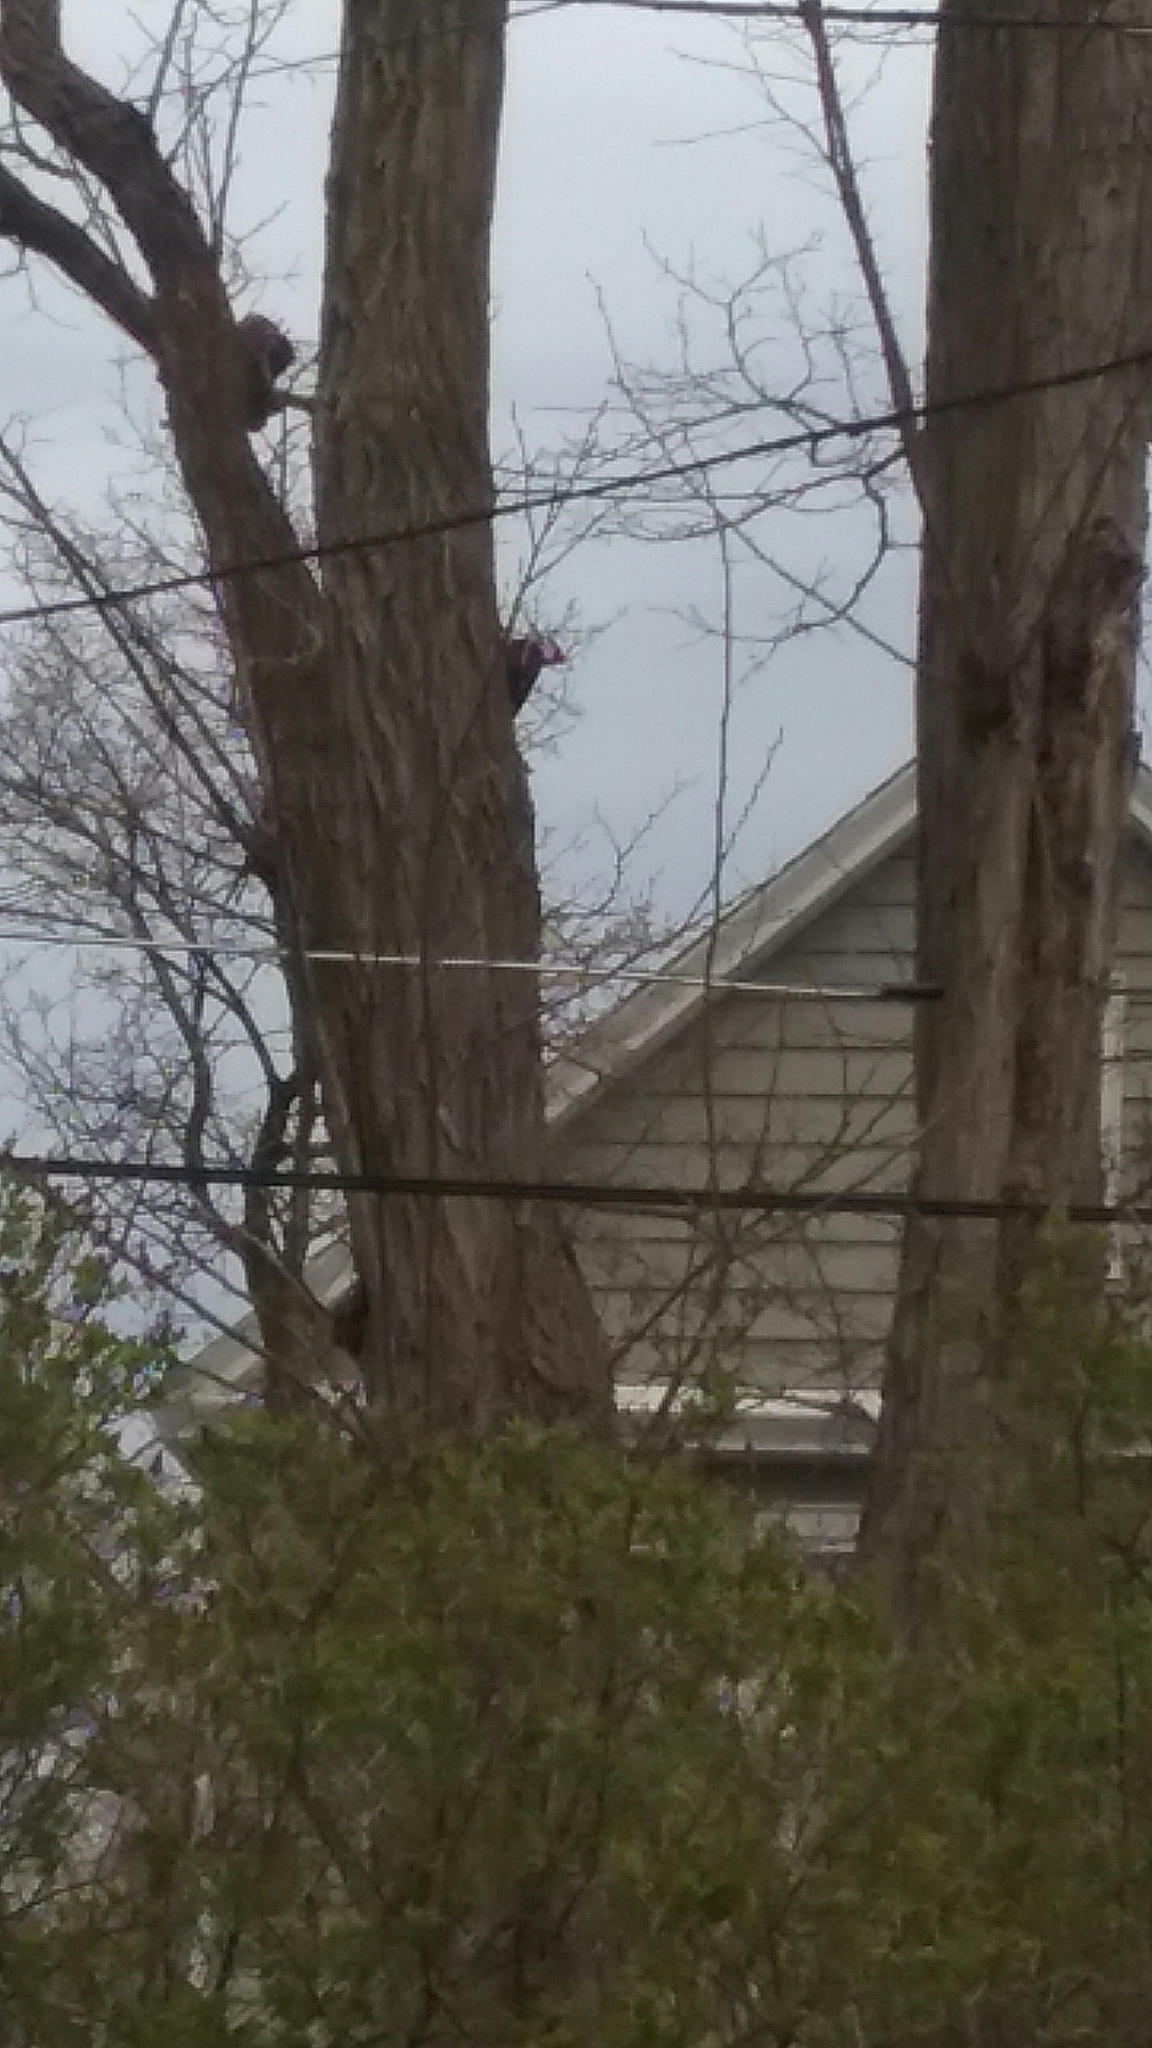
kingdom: Animalia
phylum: Chordata
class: Aves
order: Piciformes
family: Picidae
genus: Dryocopus
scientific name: Dryocopus pileatus
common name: Pileated woodpecker
